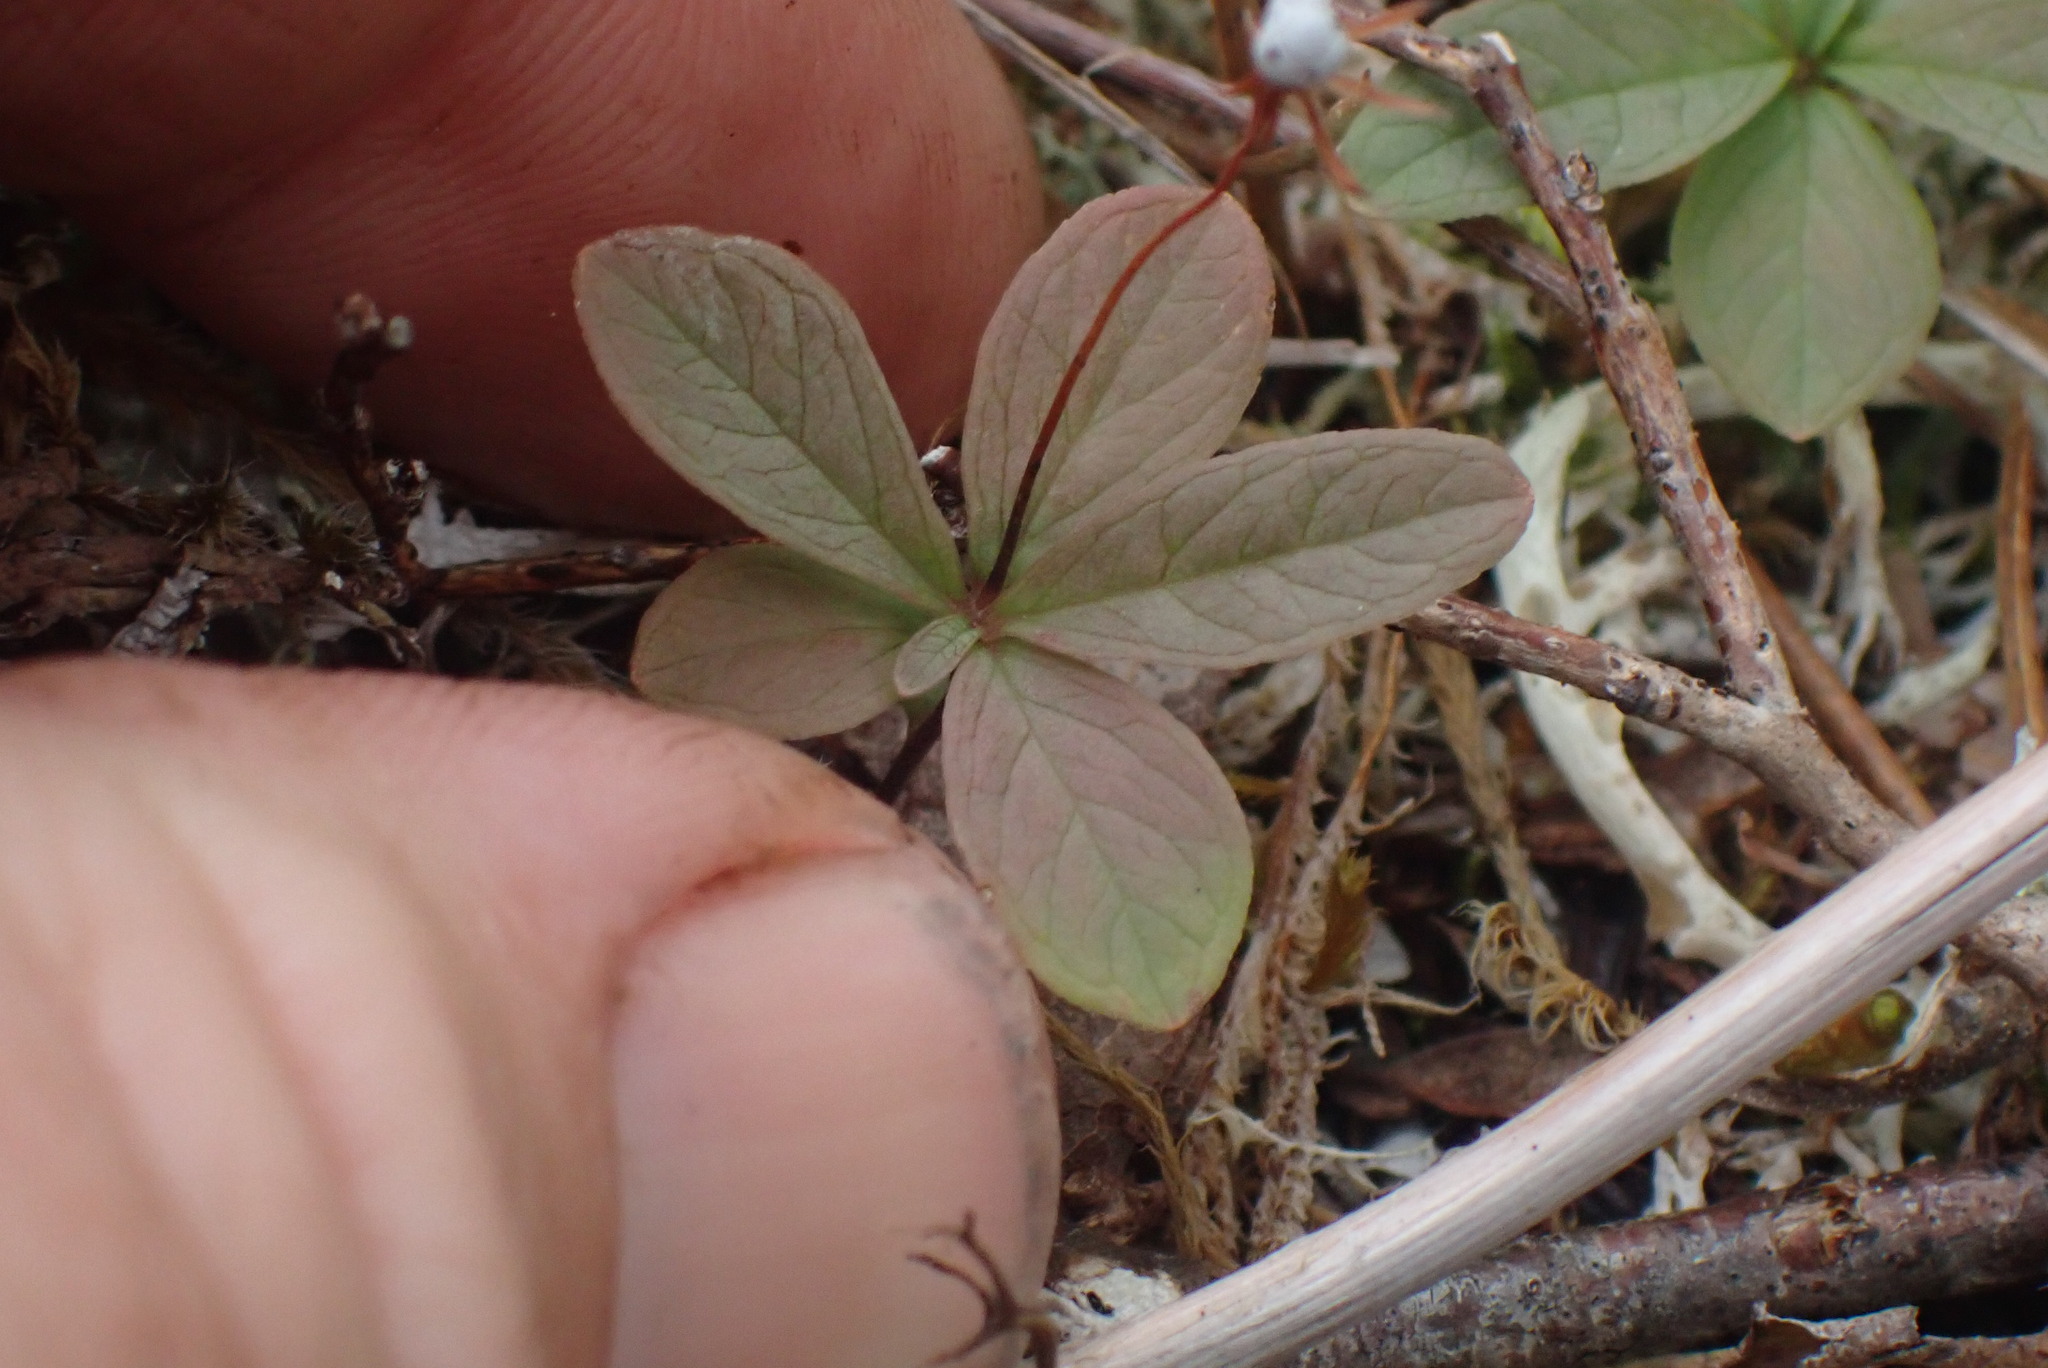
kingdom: Plantae
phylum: Tracheophyta
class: Magnoliopsida
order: Ericales
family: Primulaceae
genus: Lysimachia
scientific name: Lysimachia europaea
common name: Arctic starflower
